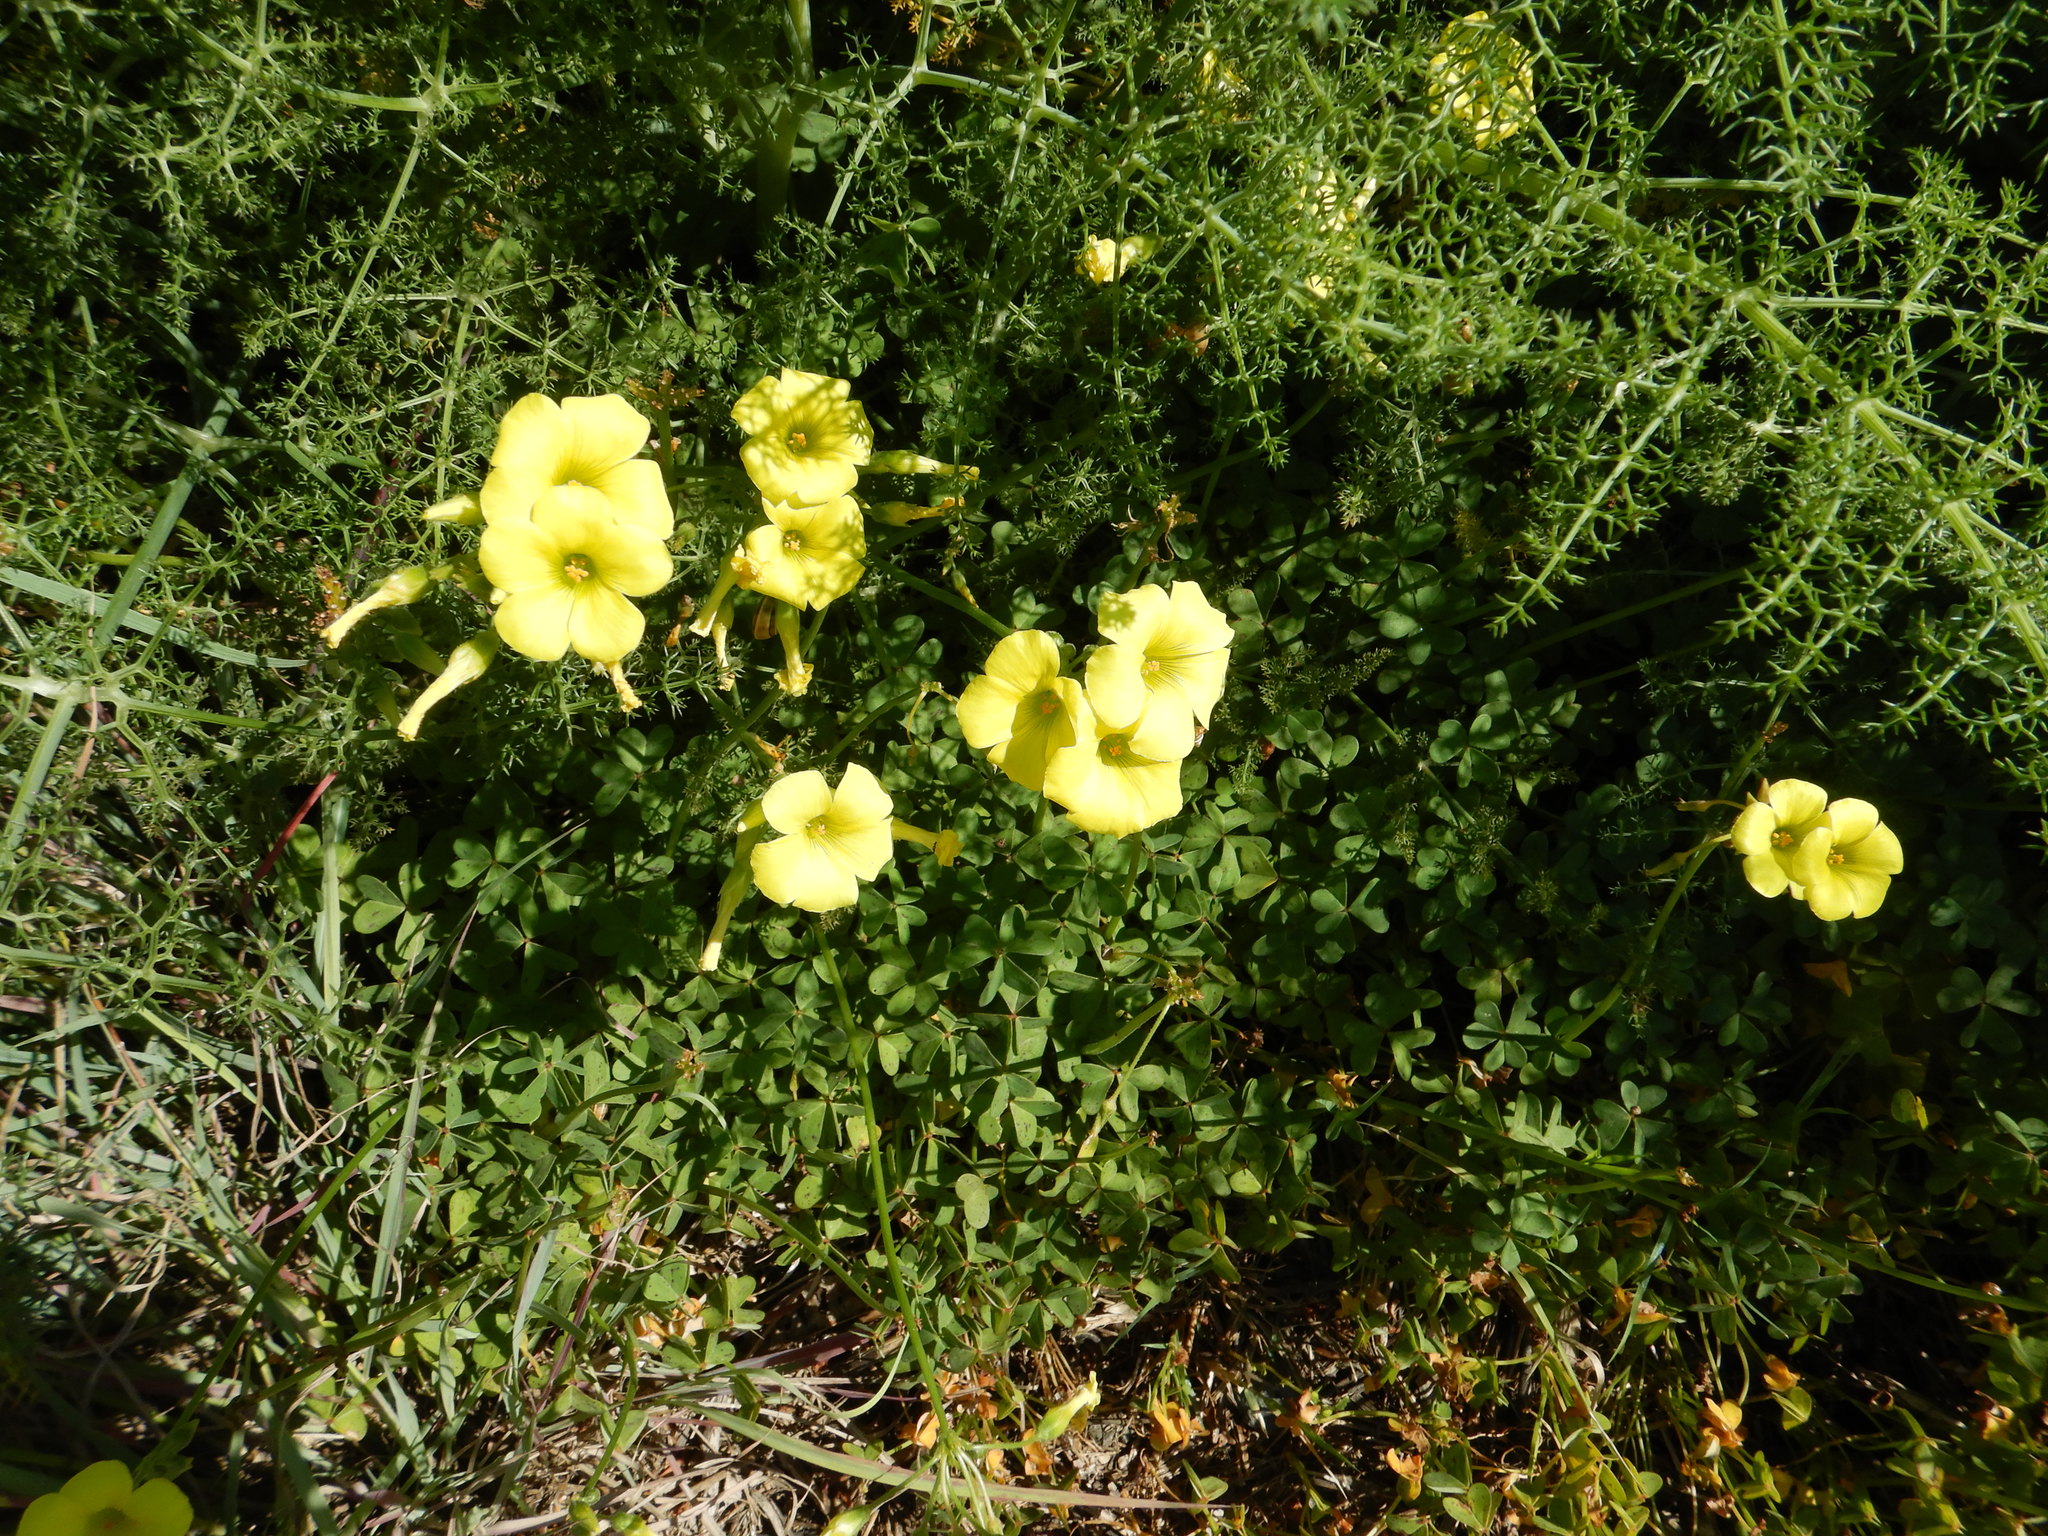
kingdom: Plantae
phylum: Tracheophyta
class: Magnoliopsida
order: Oxalidales
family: Oxalidaceae
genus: Oxalis
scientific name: Oxalis pes-caprae
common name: Bermuda-buttercup
